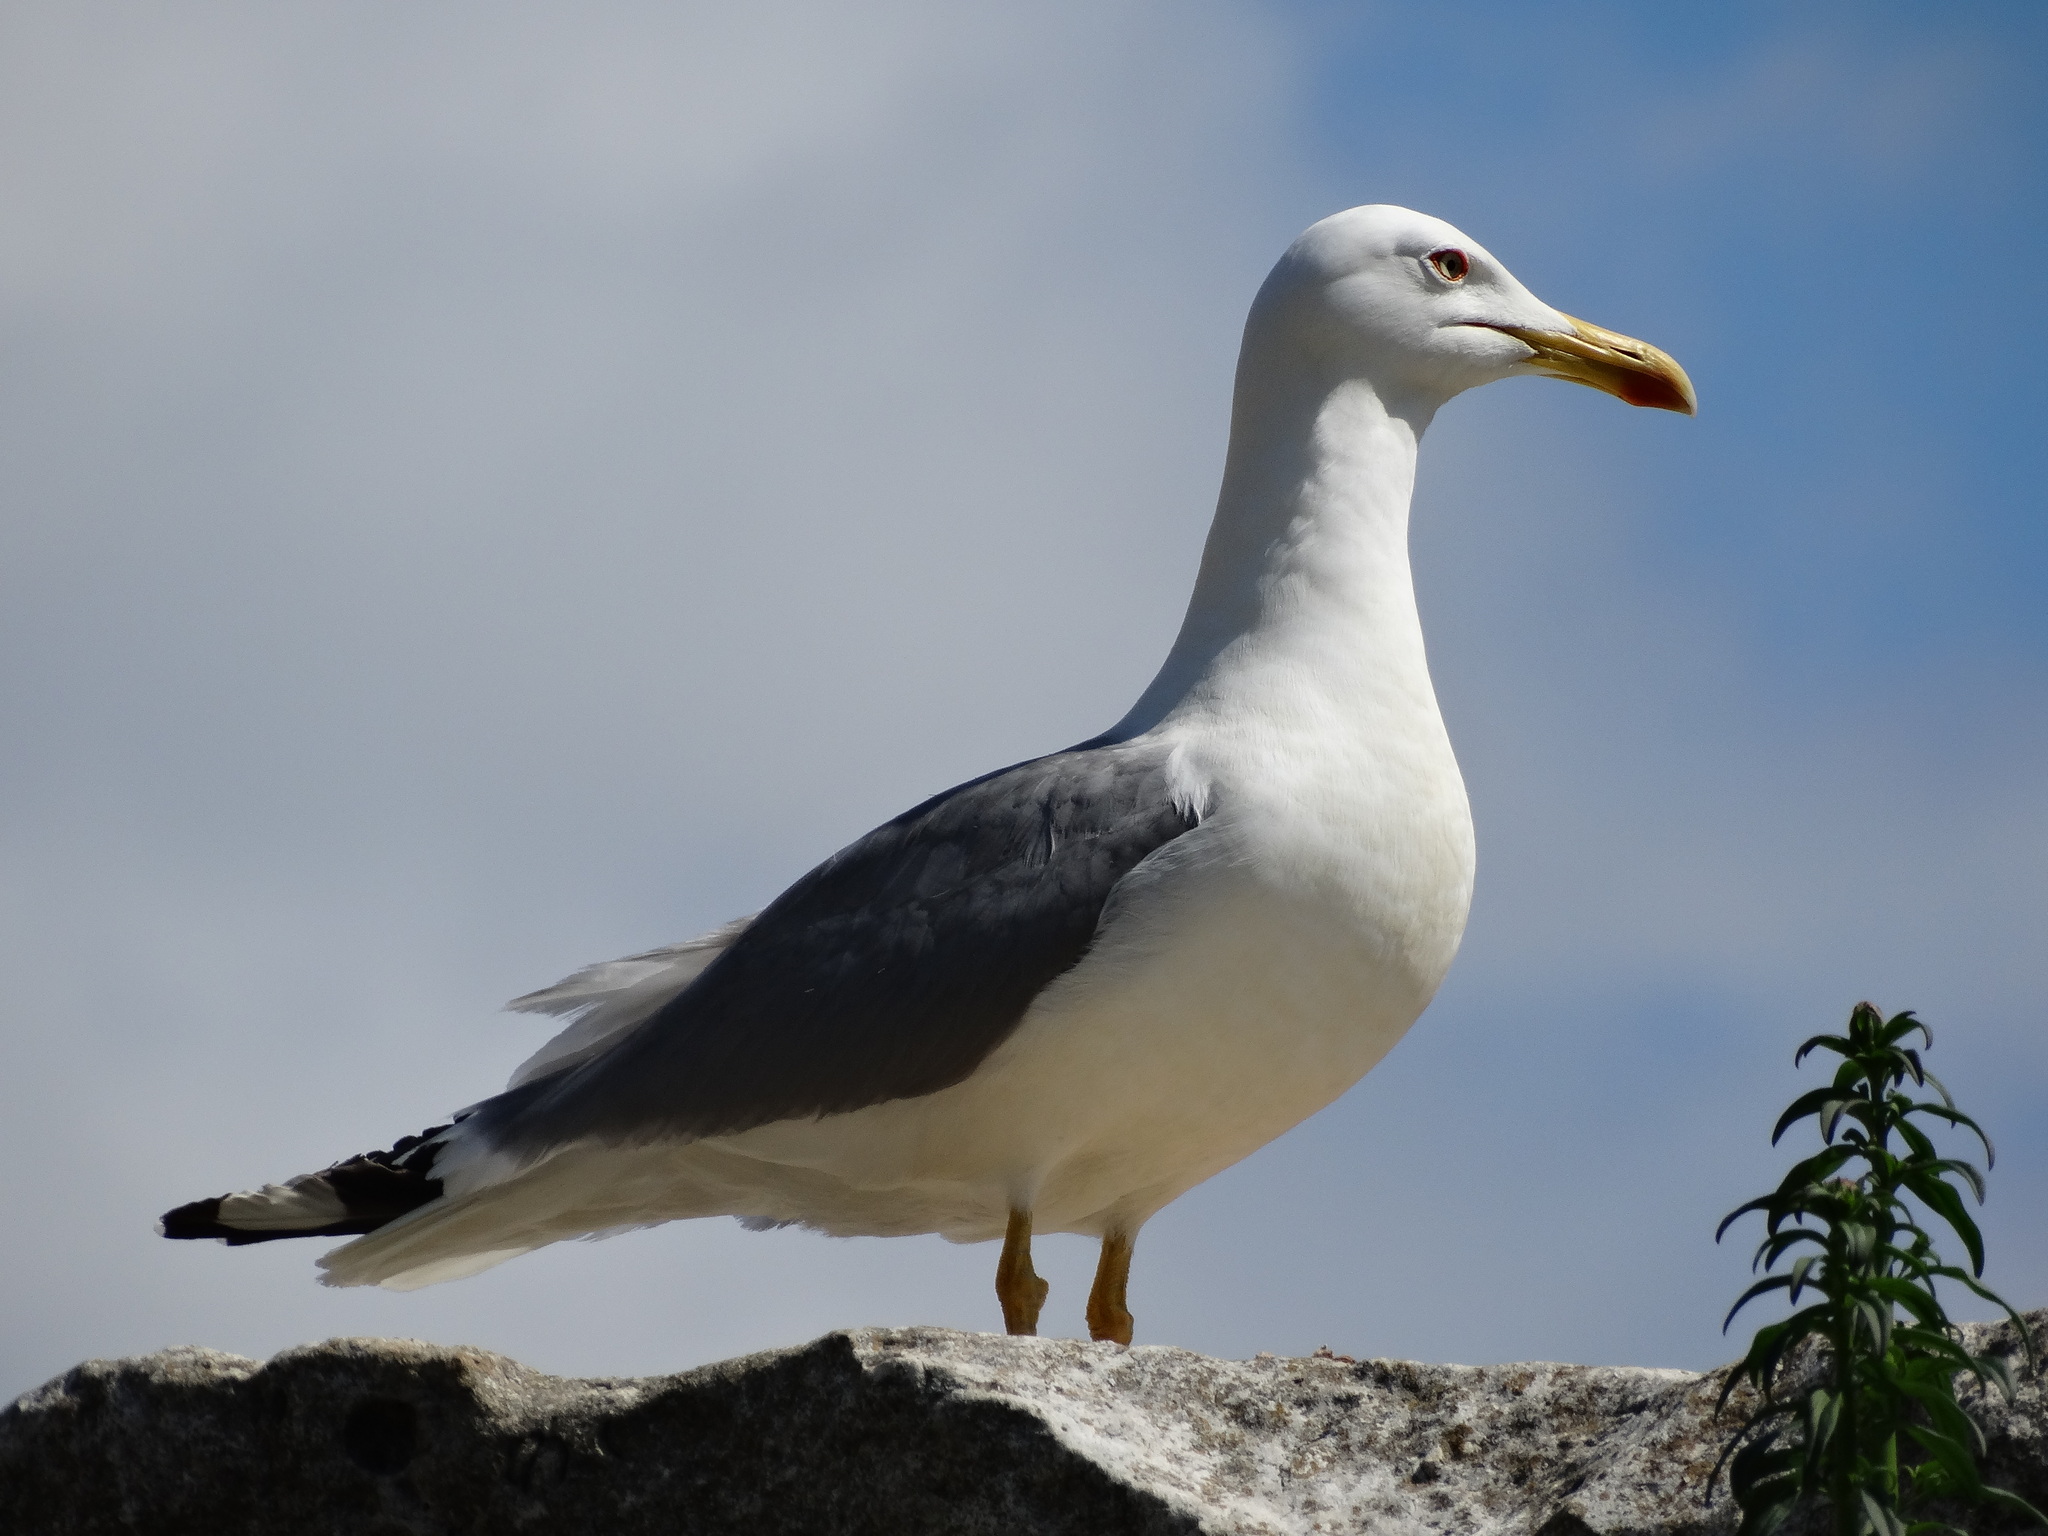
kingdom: Animalia
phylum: Chordata
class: Aves
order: Charadriiformes
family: Laridae
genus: Larus
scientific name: Larus michahellis
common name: Yellow-legged gull
